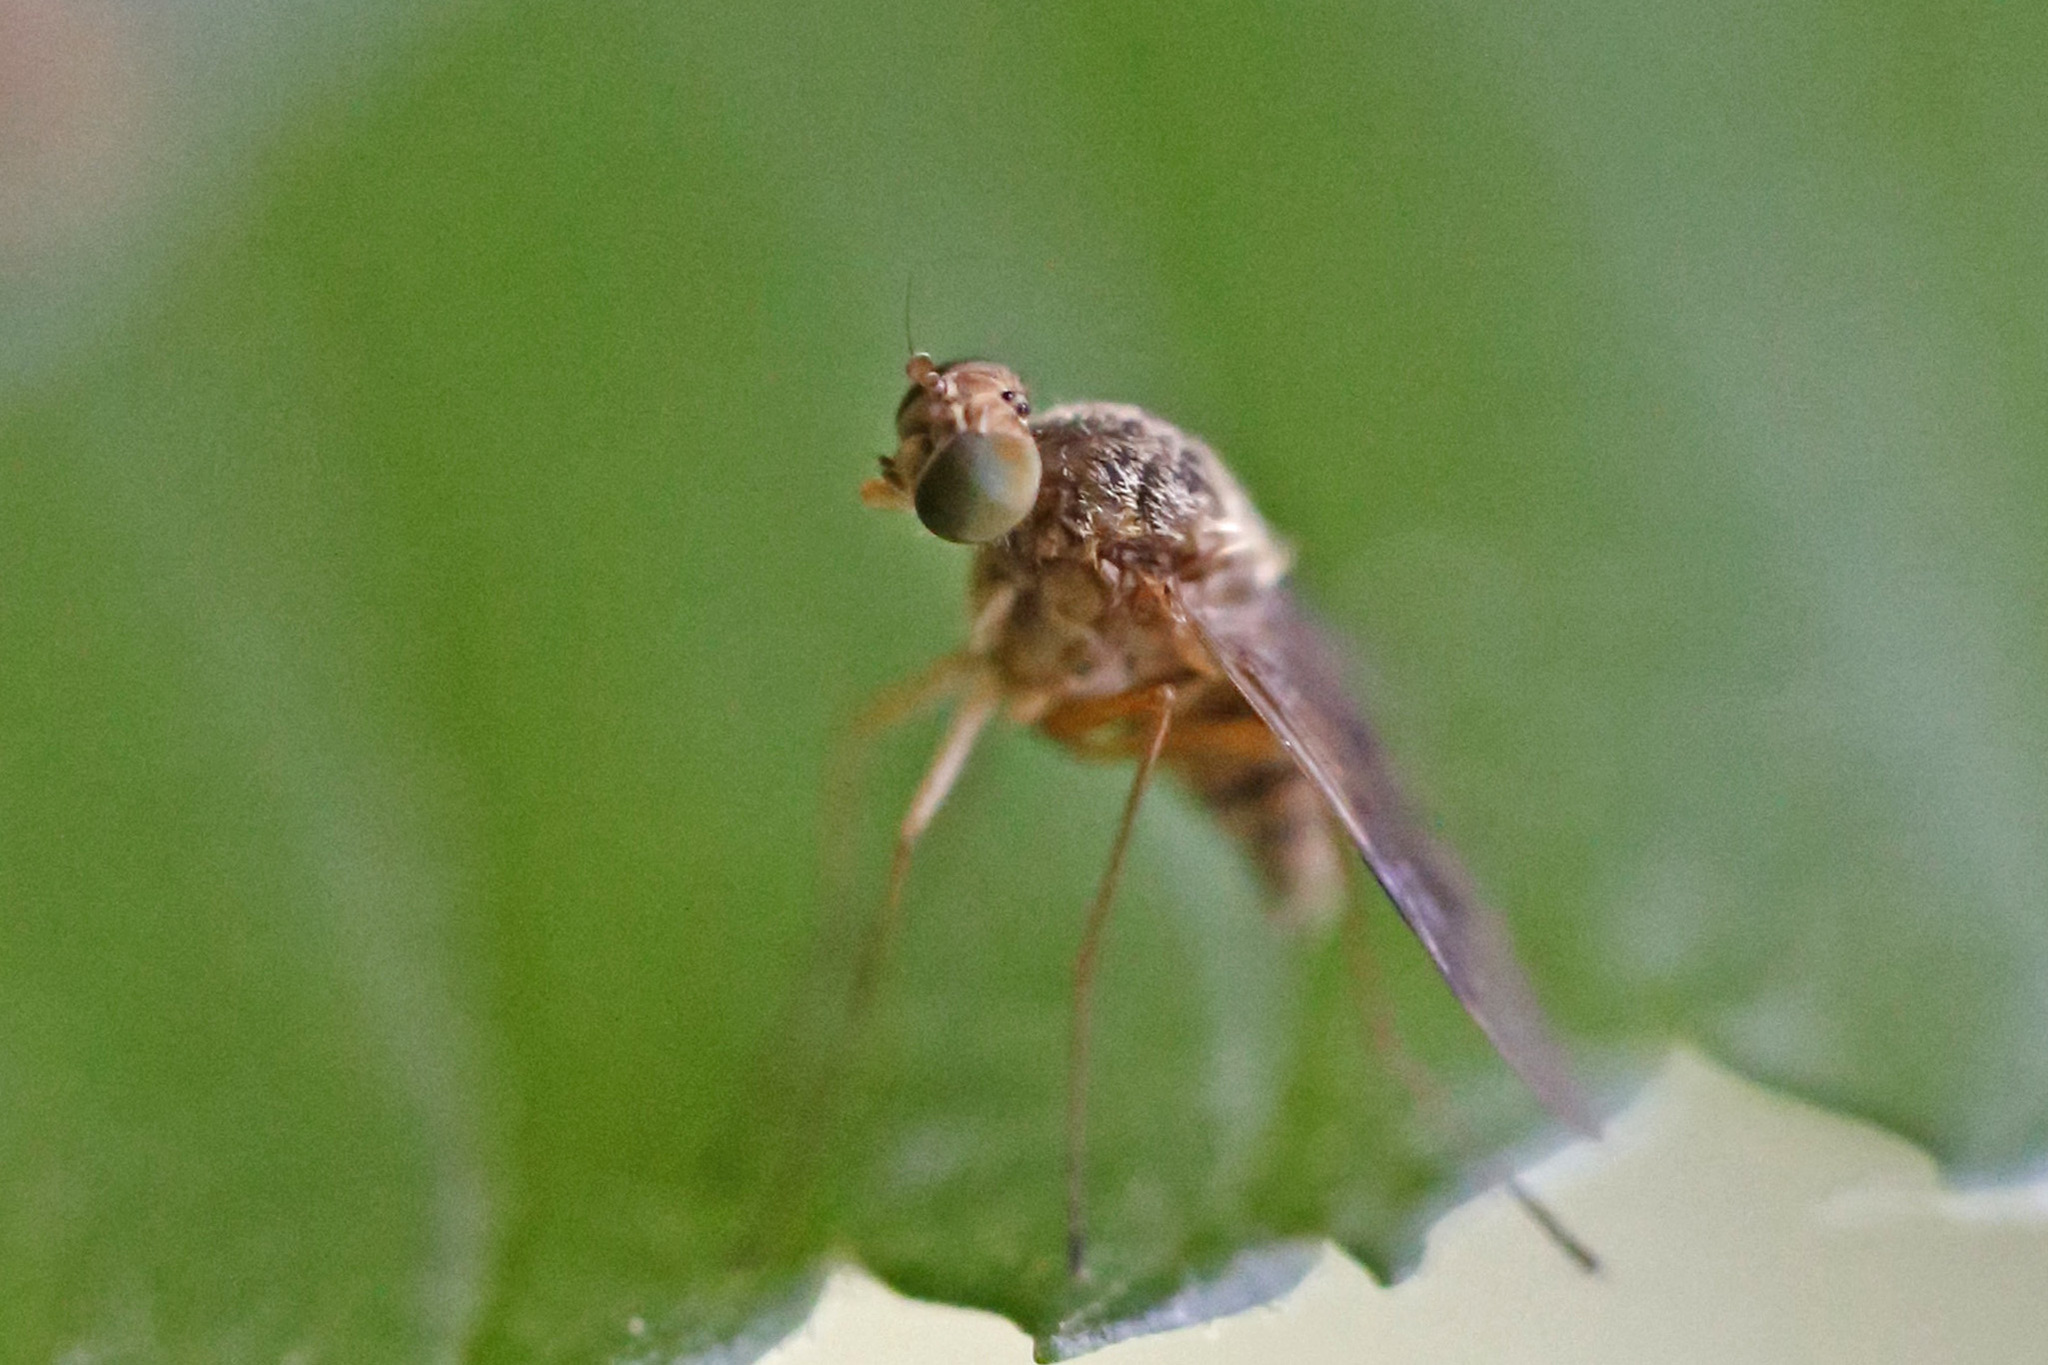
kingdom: Animalia
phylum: Arthropoda
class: Insecta
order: Diptera
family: Rhagionidae
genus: Chrysopilus
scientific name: Chrysopilus quadratus
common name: Quadrate snipe fly
